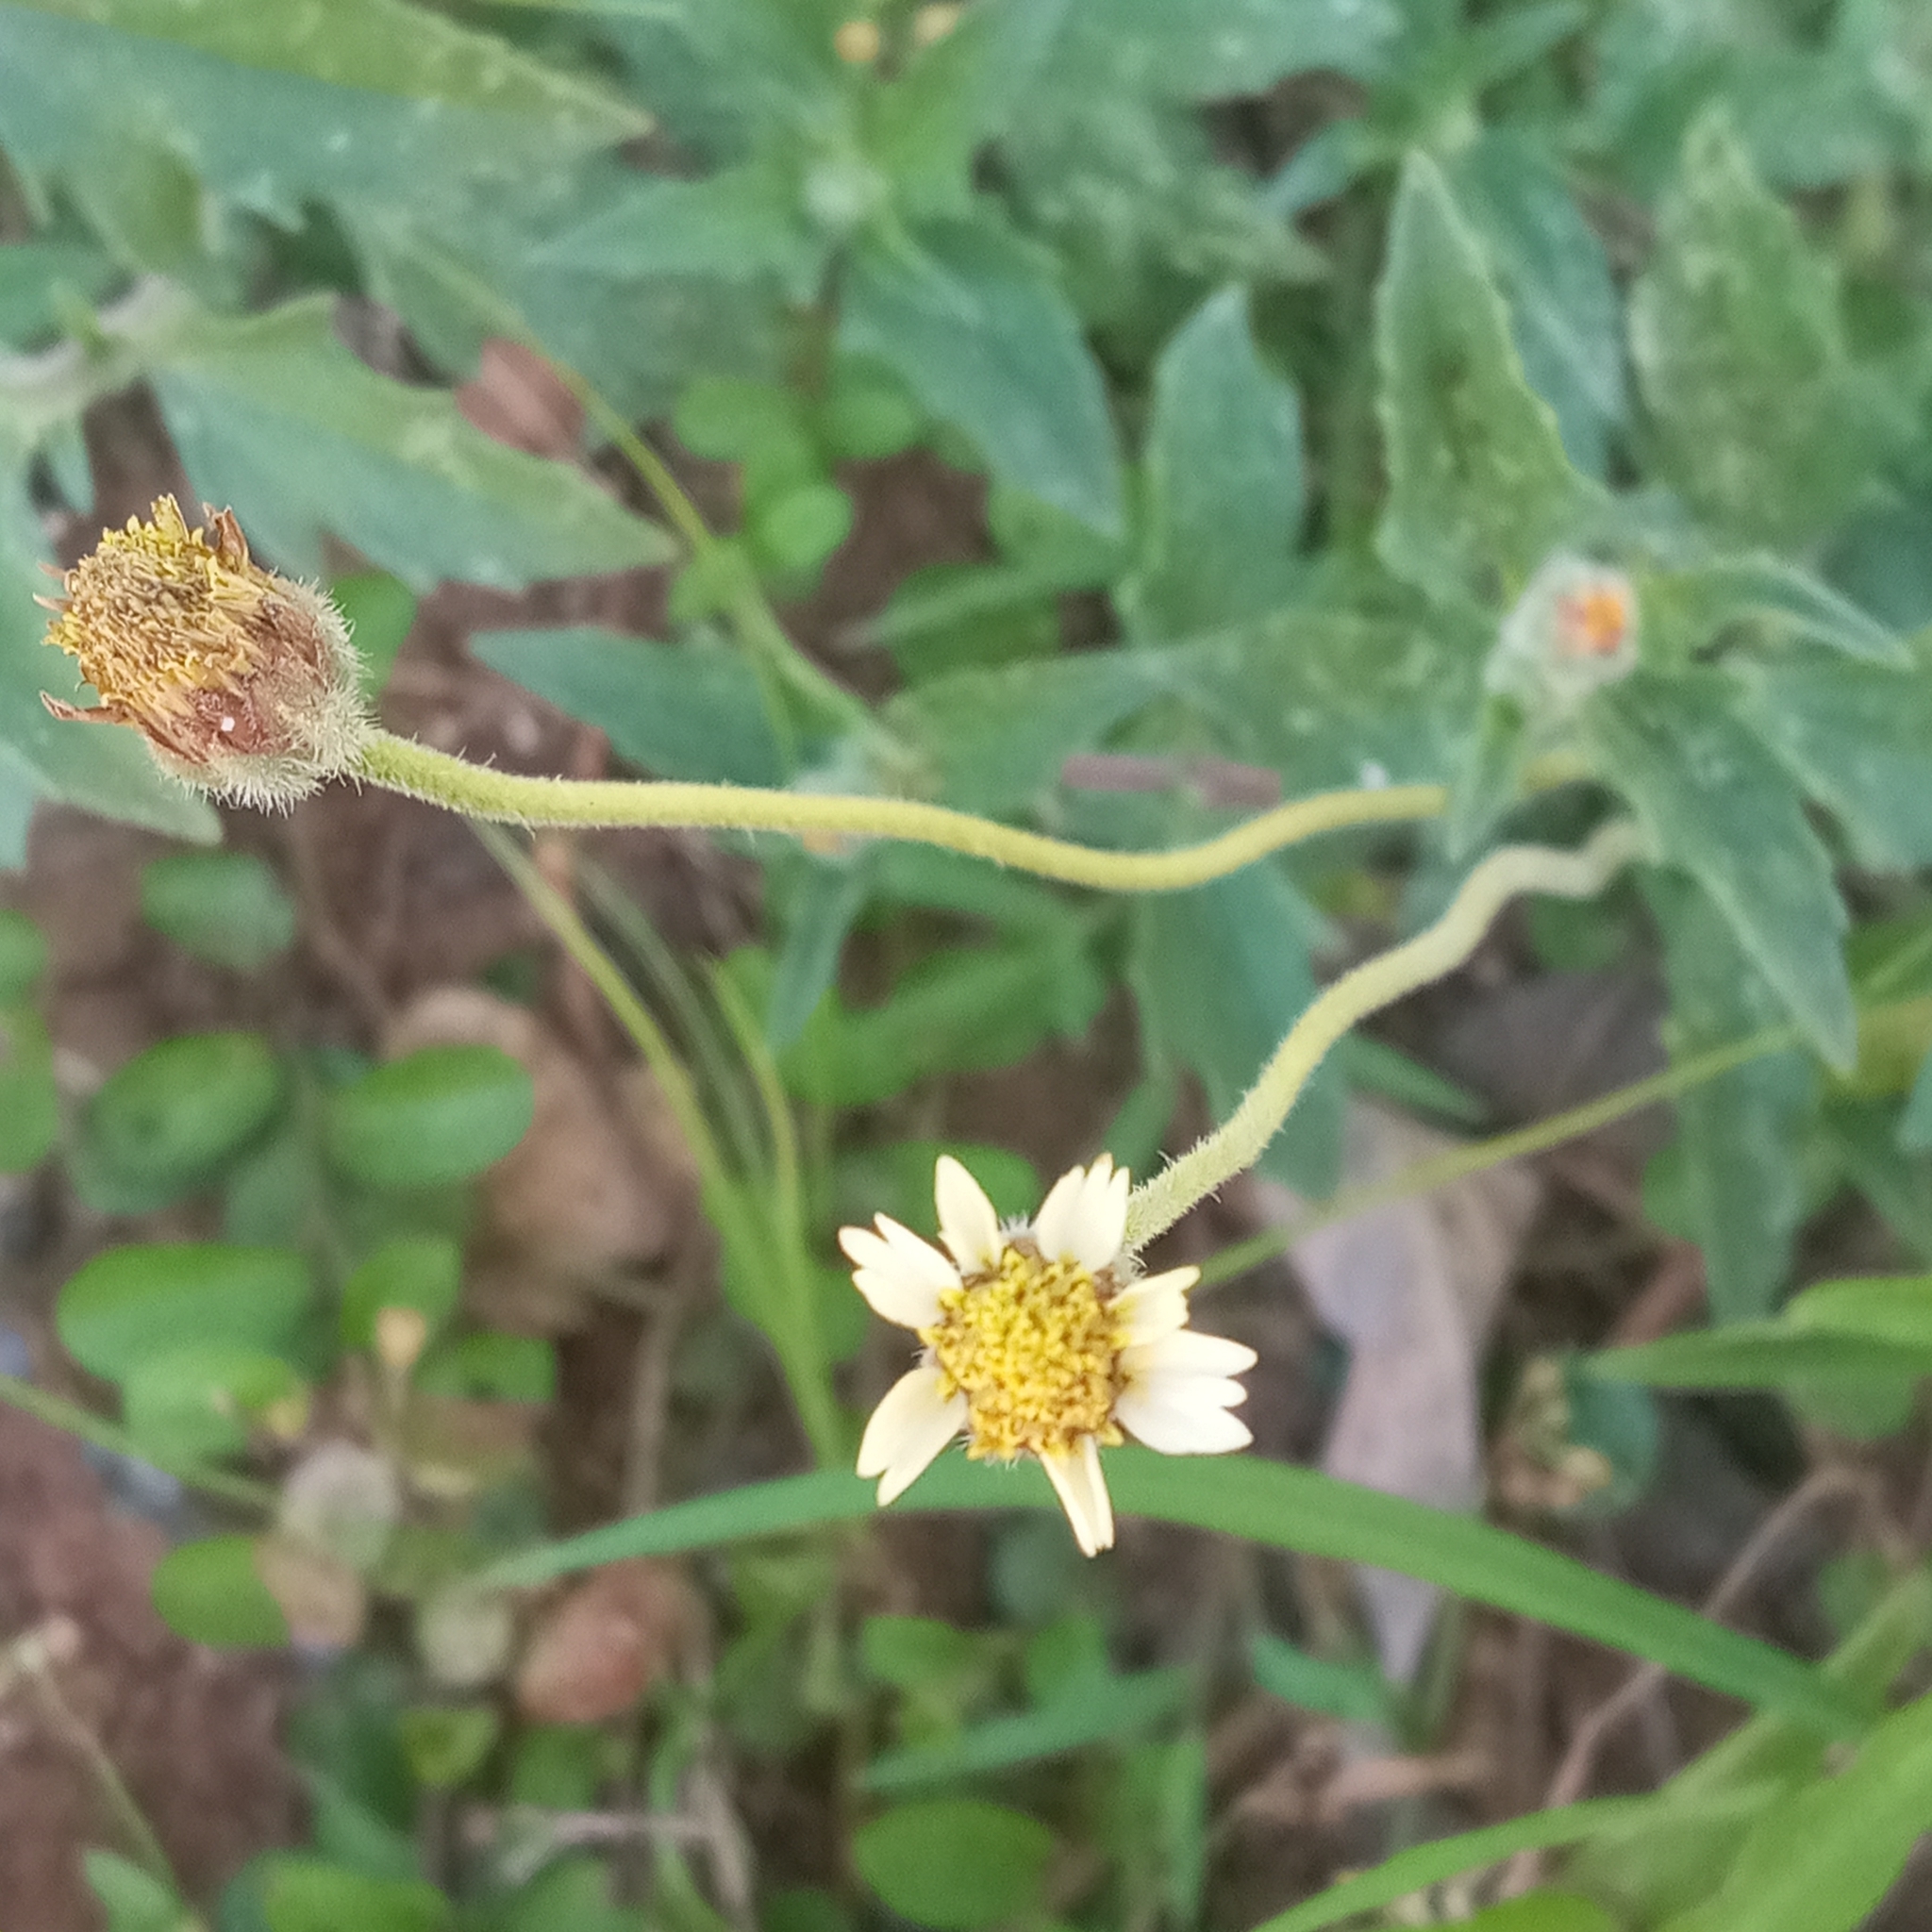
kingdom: Plantae
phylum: Tracheophyta
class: Magnoliopsida
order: Asterales
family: Asteraceae
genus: Tridax
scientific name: Tridax procumbens
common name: Coatbuttons
